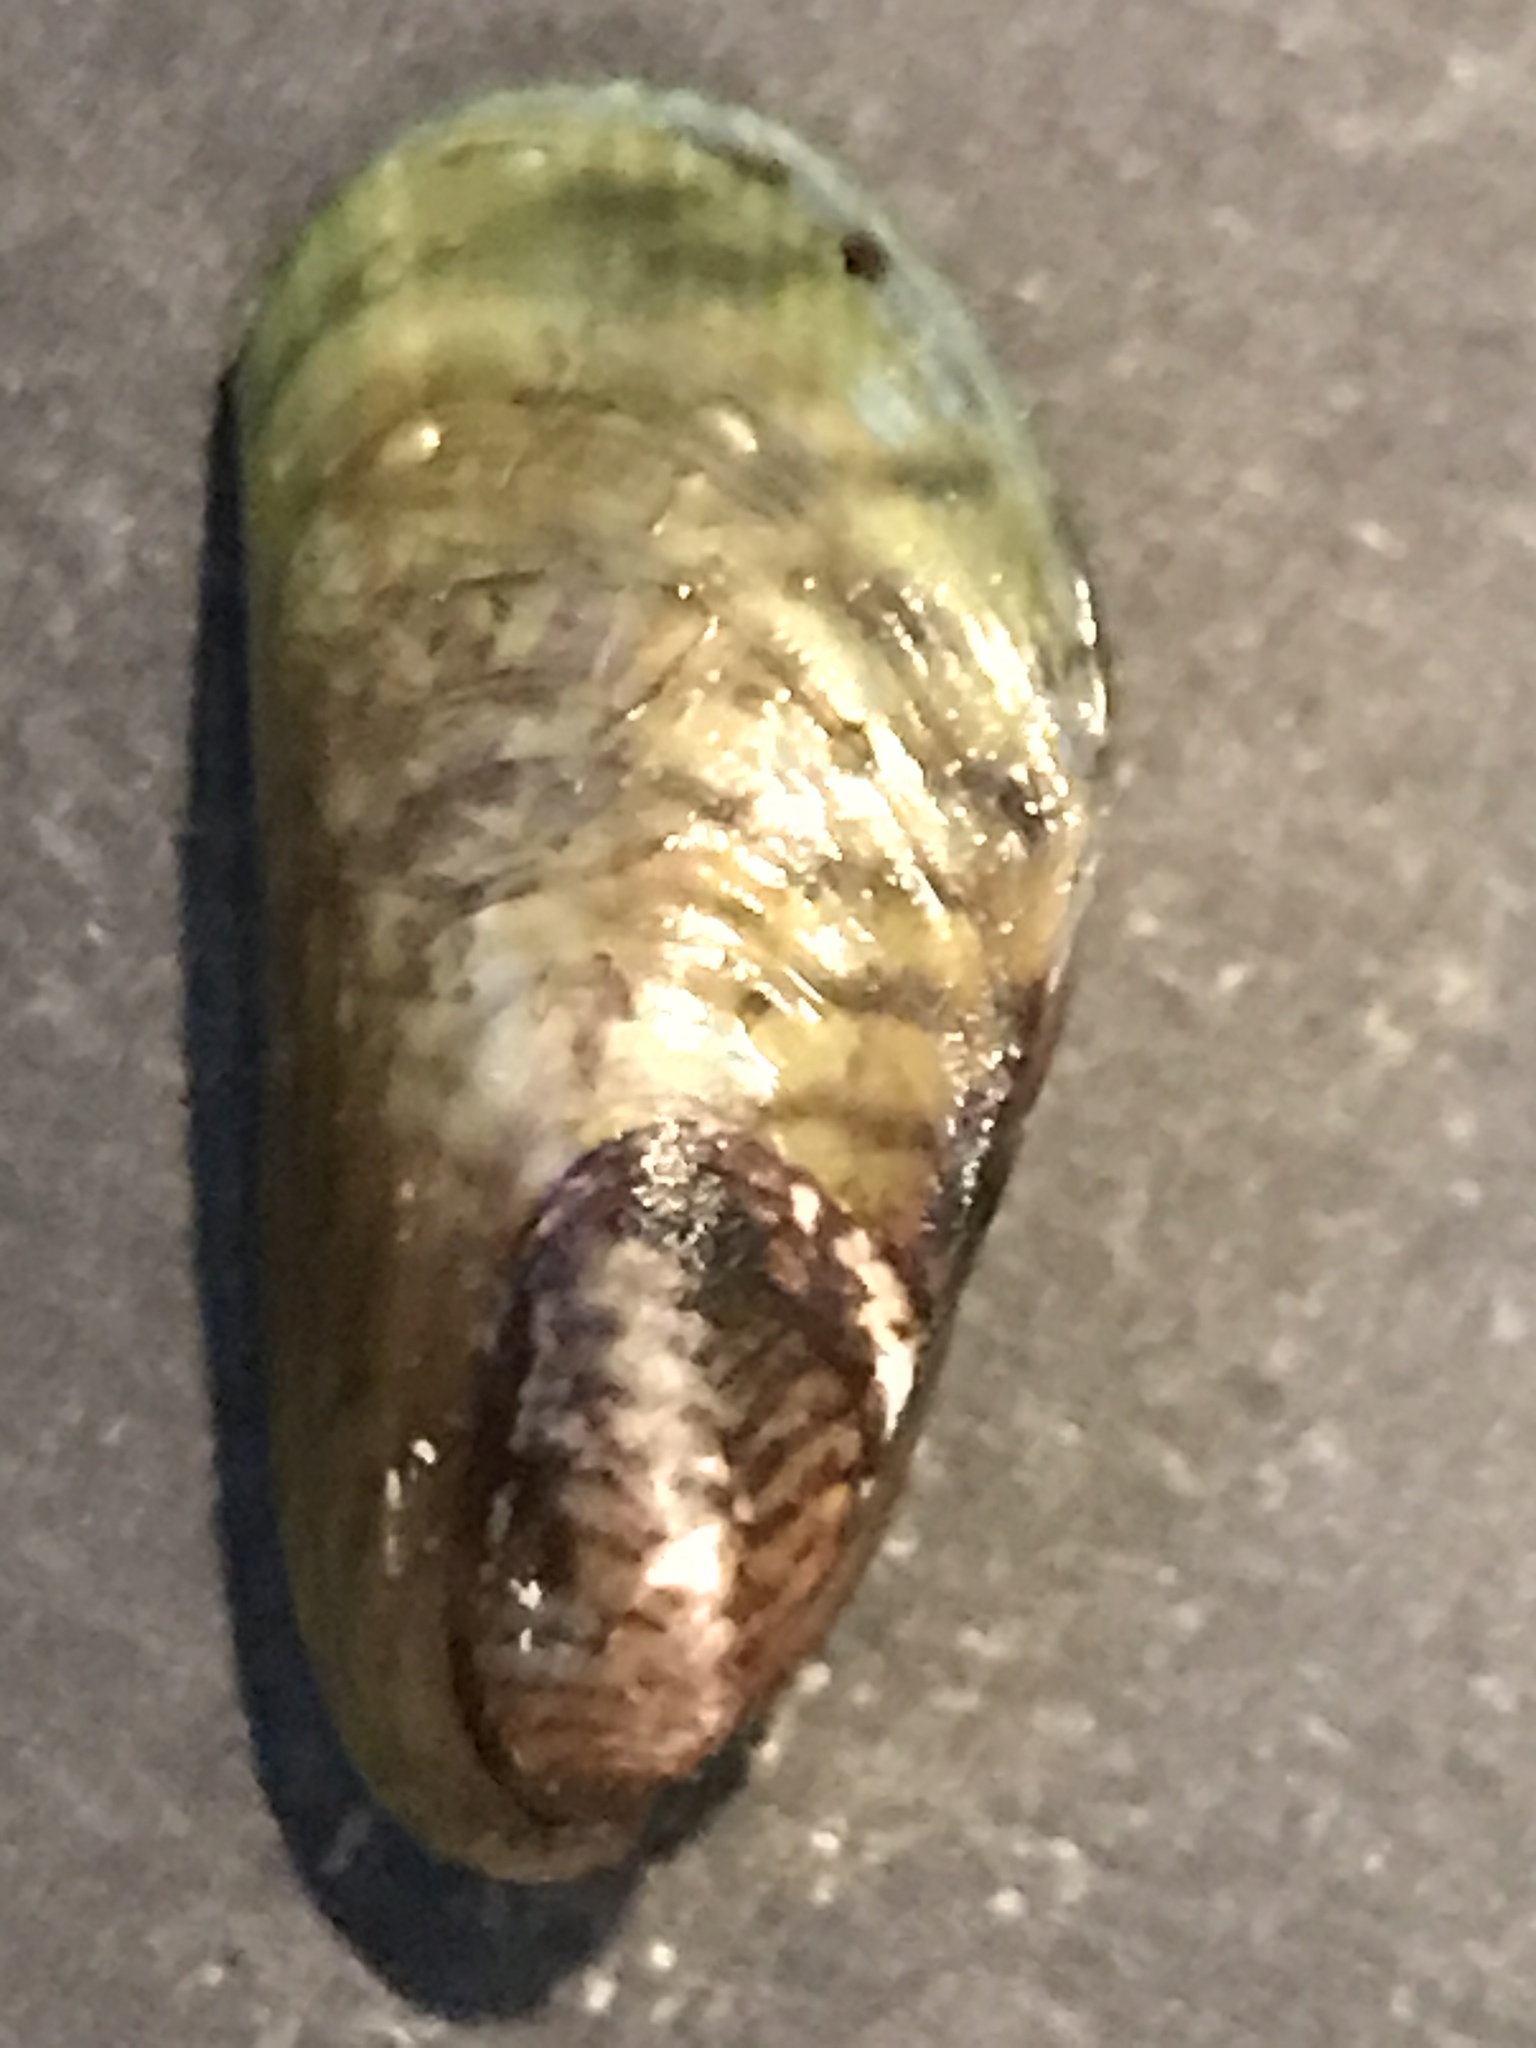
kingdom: Animalia
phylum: Mollusca
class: Bivalvia
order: Mytilida
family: Mytilidae
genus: Arcuatula
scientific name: Arcuatula senhousia
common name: Asian mussel
